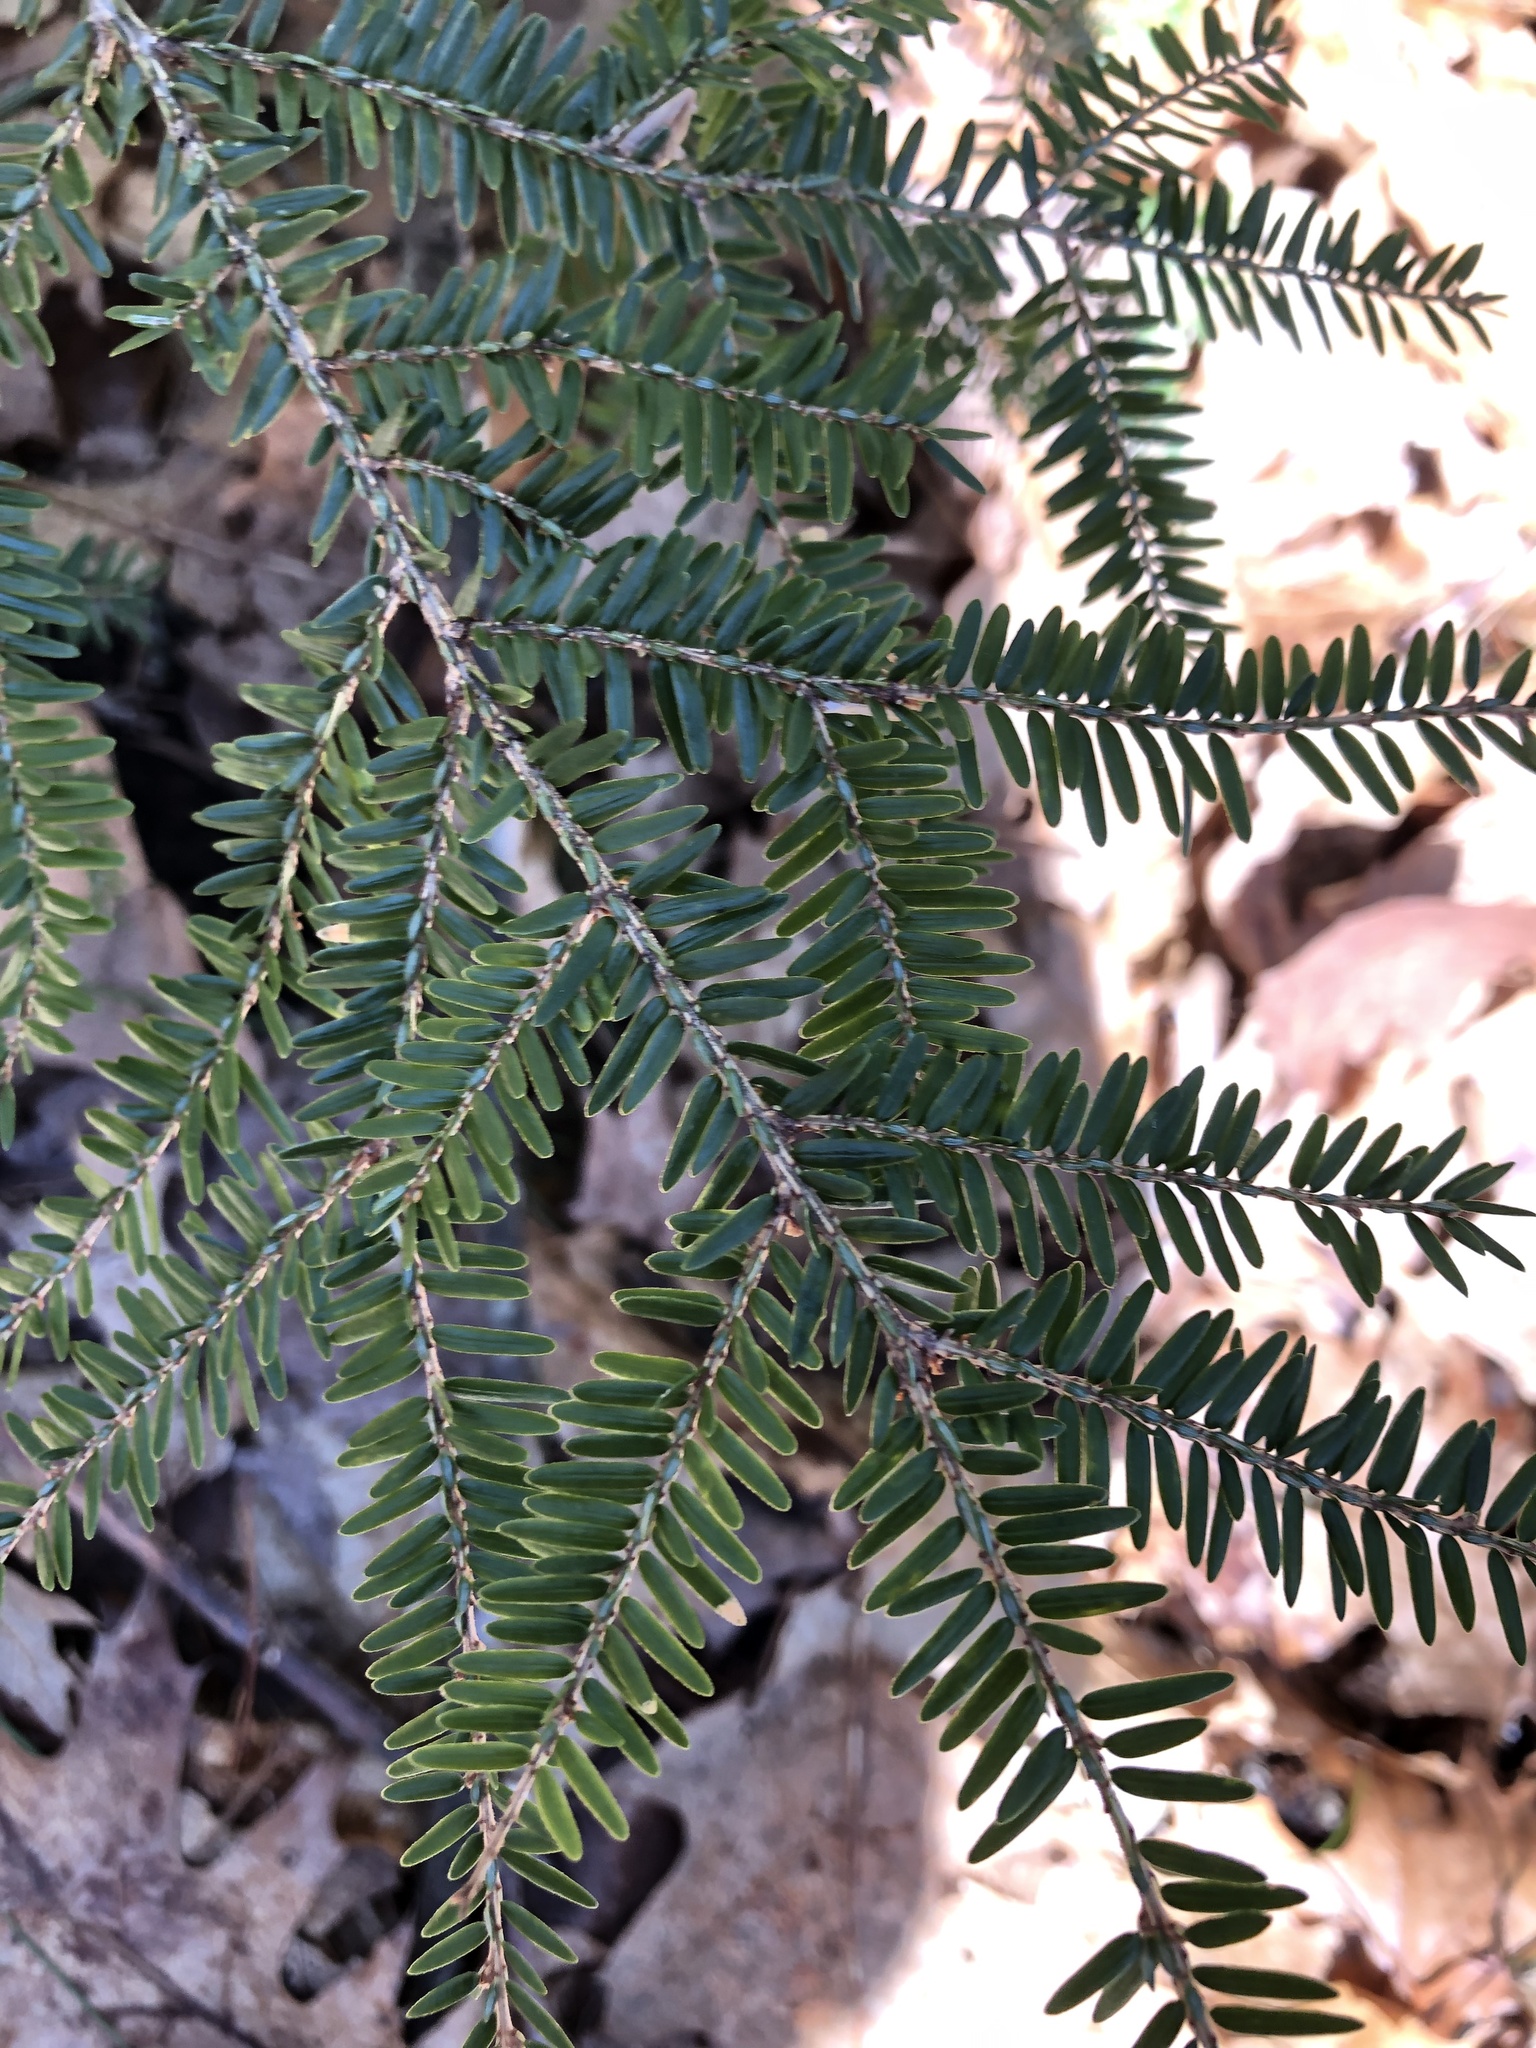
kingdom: Plantae
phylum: Tracheophyta
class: Pinopsida
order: Pinales
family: Pinaceae
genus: Tsuga
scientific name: Tsuga canadensis
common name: Eastern hemlock
